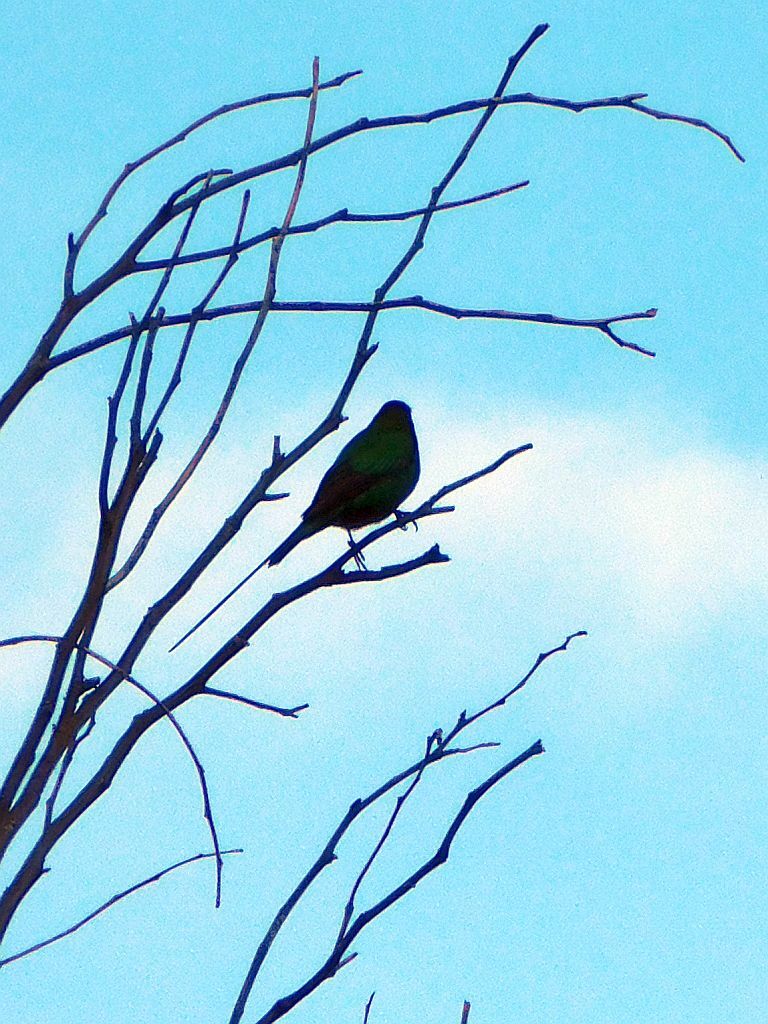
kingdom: Animalia
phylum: Chordata
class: Aves
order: Passeriformes
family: Nectariniidae
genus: Nectarinia
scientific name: Nectarinia famosa
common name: Malachite sunbird
